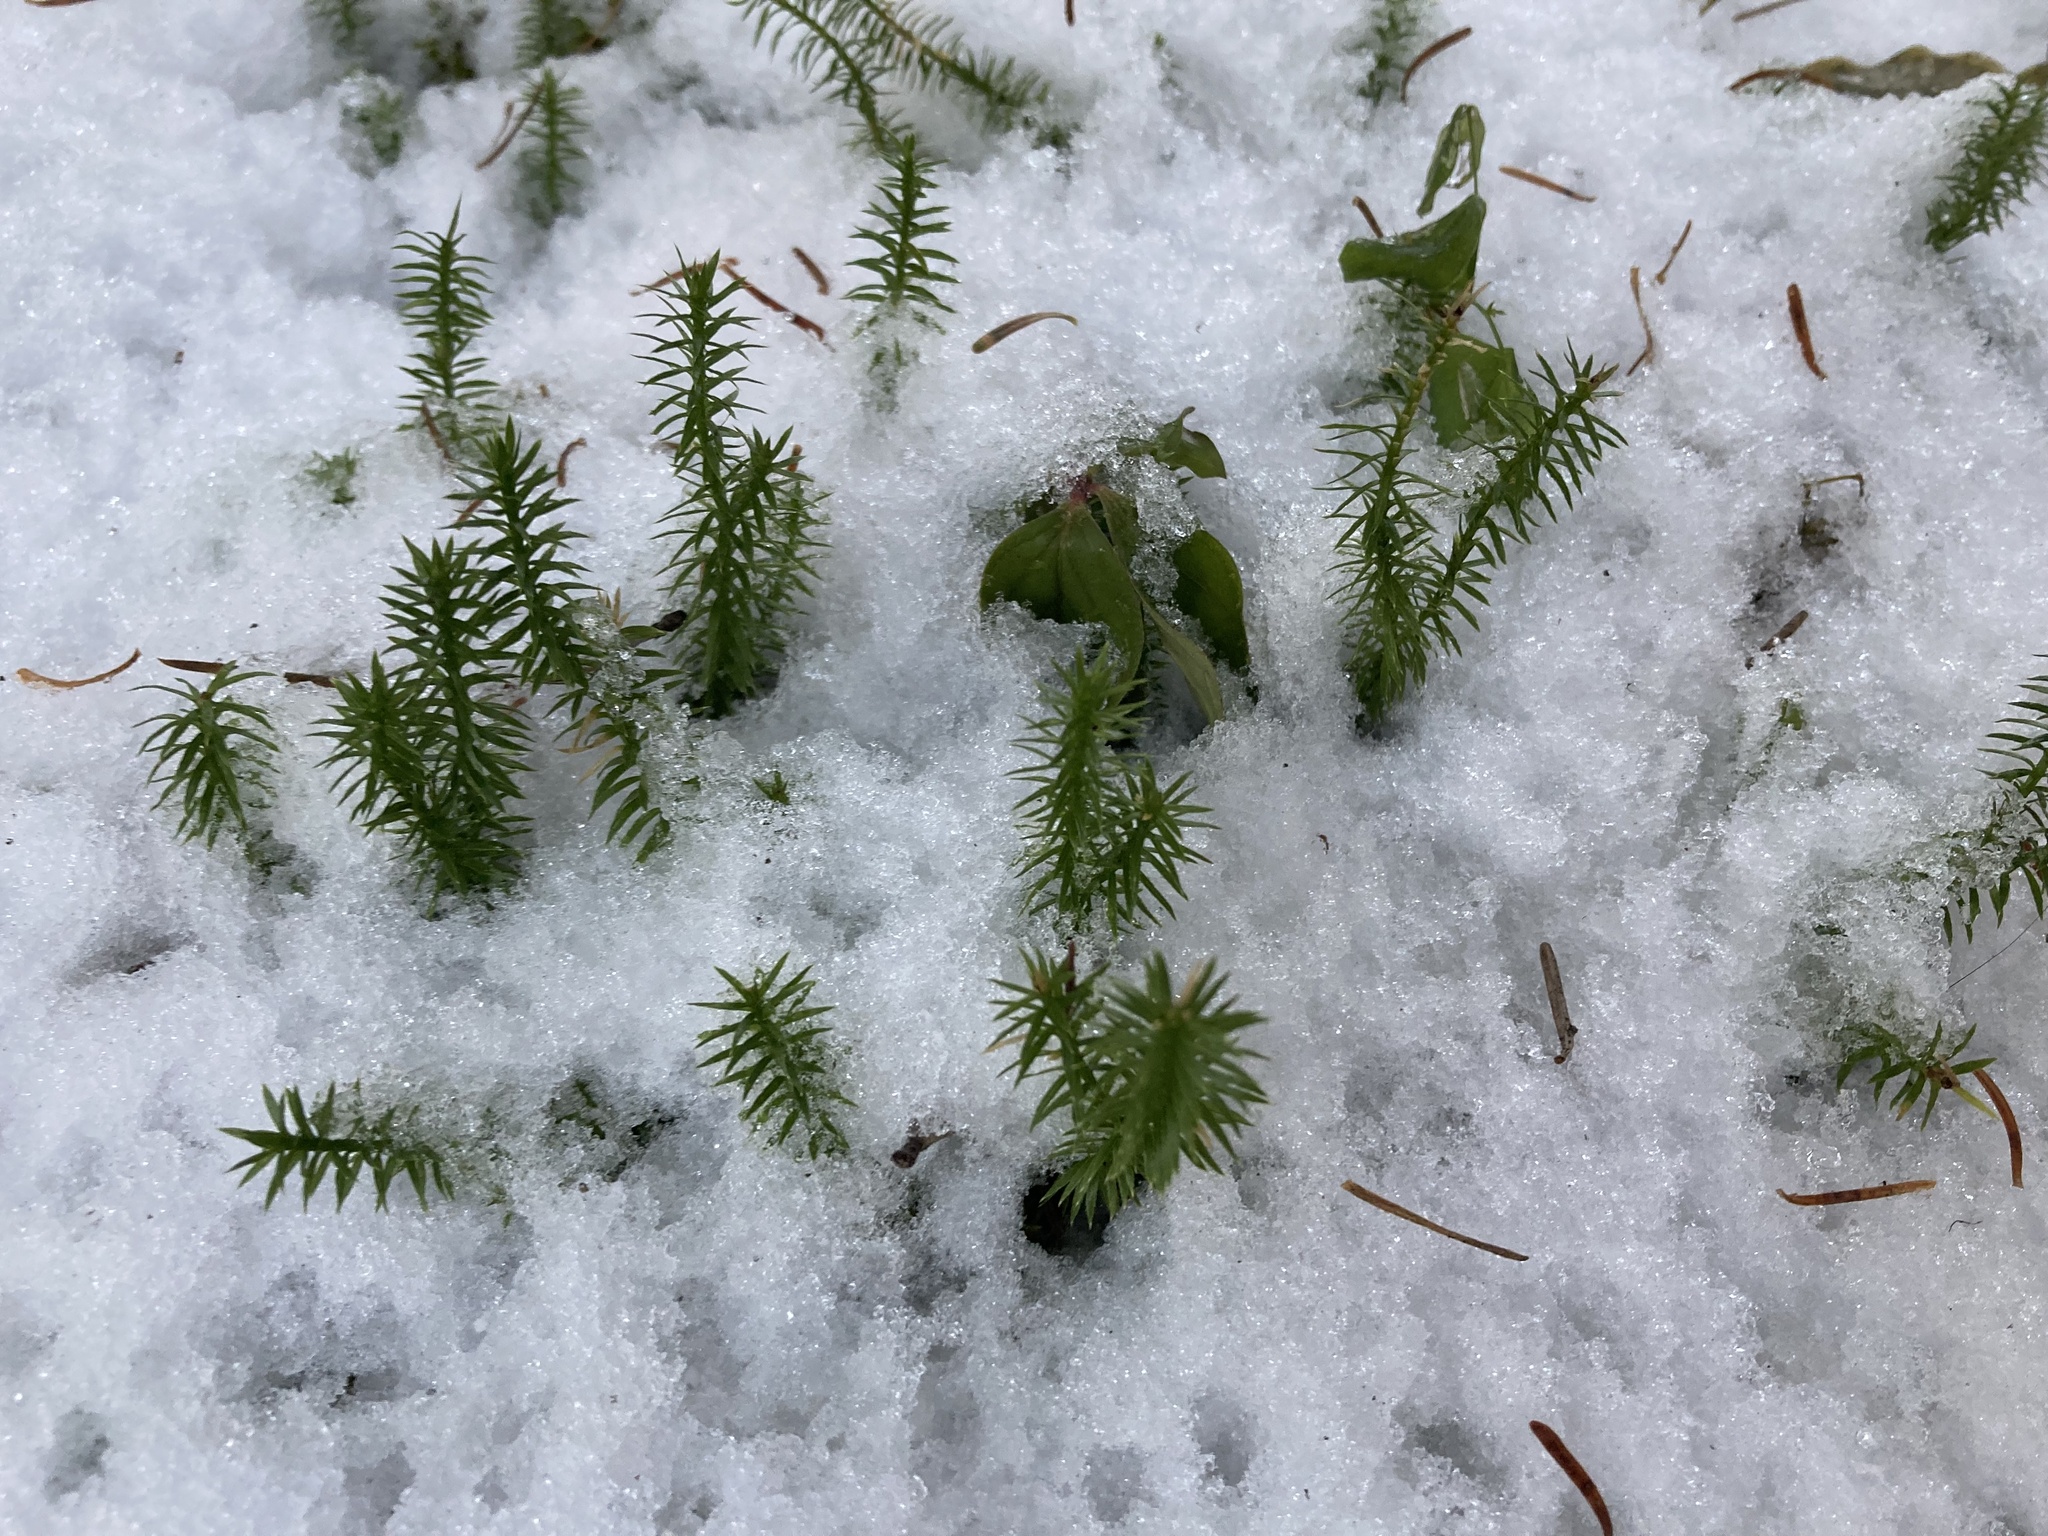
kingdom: Plantae
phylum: Tracheophyta
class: Lycopodiopsida
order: Lycopodiales
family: Lycopodiaceae
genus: Spinulum
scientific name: Spinulum annotinum
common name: Interrupted club-moss
